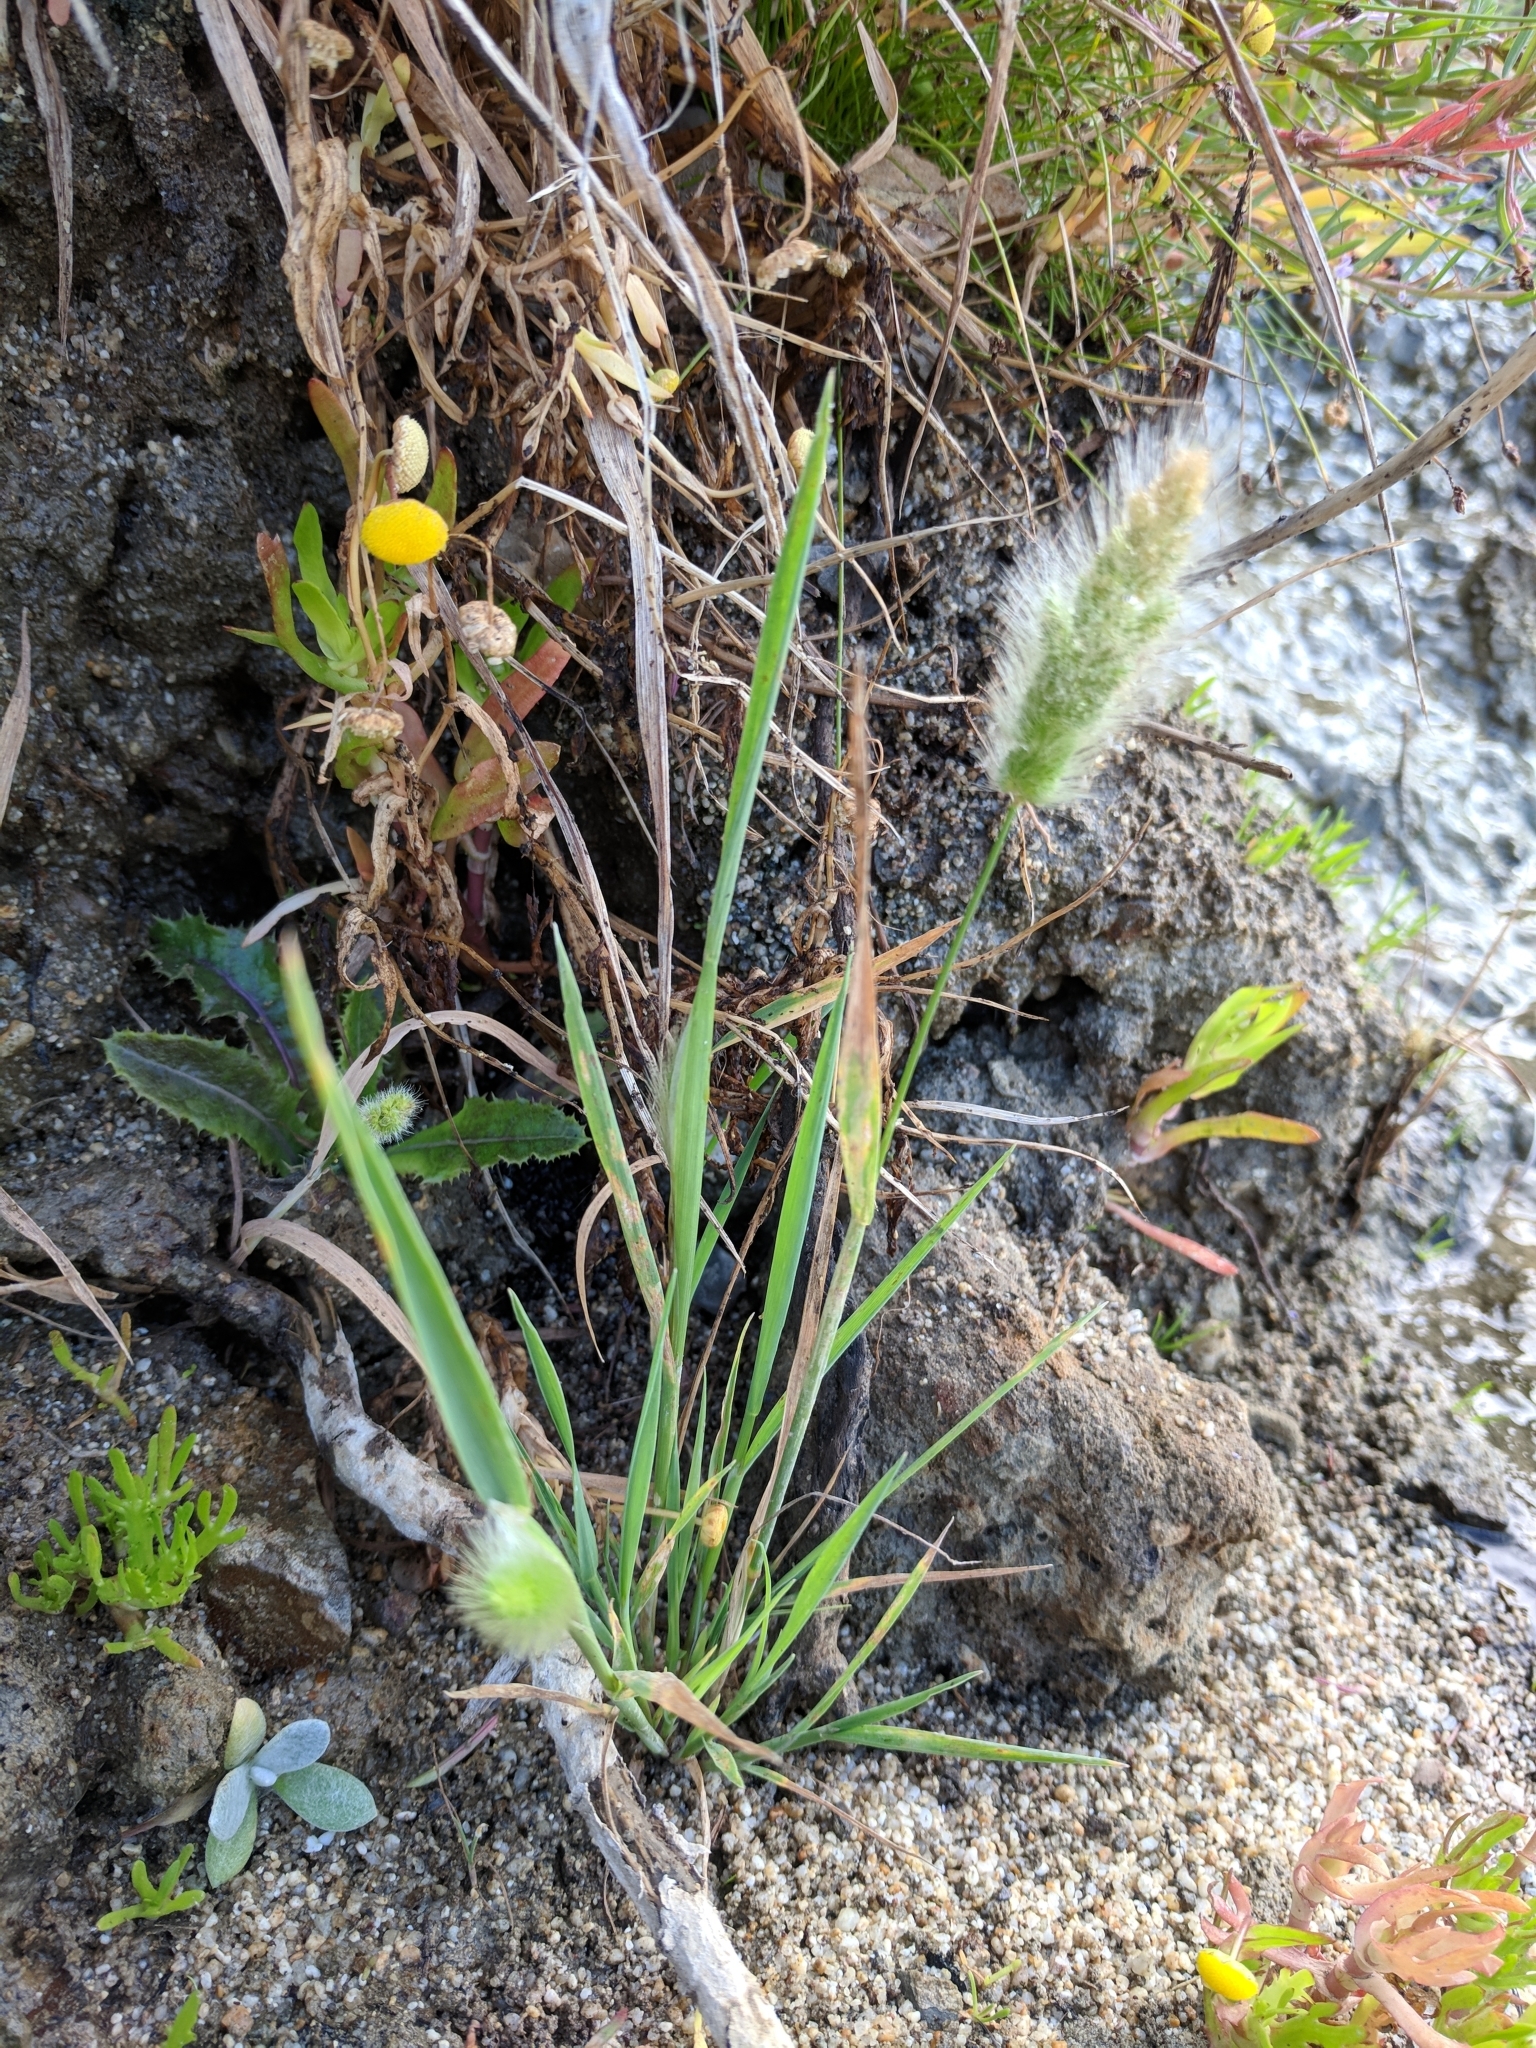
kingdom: Plantae
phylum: Tracheophyta
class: Liliopsida
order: Poales
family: Poaceae
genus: Polypogon
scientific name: Polypogon monspeliensis
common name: Annual rabbitsfoot grass
